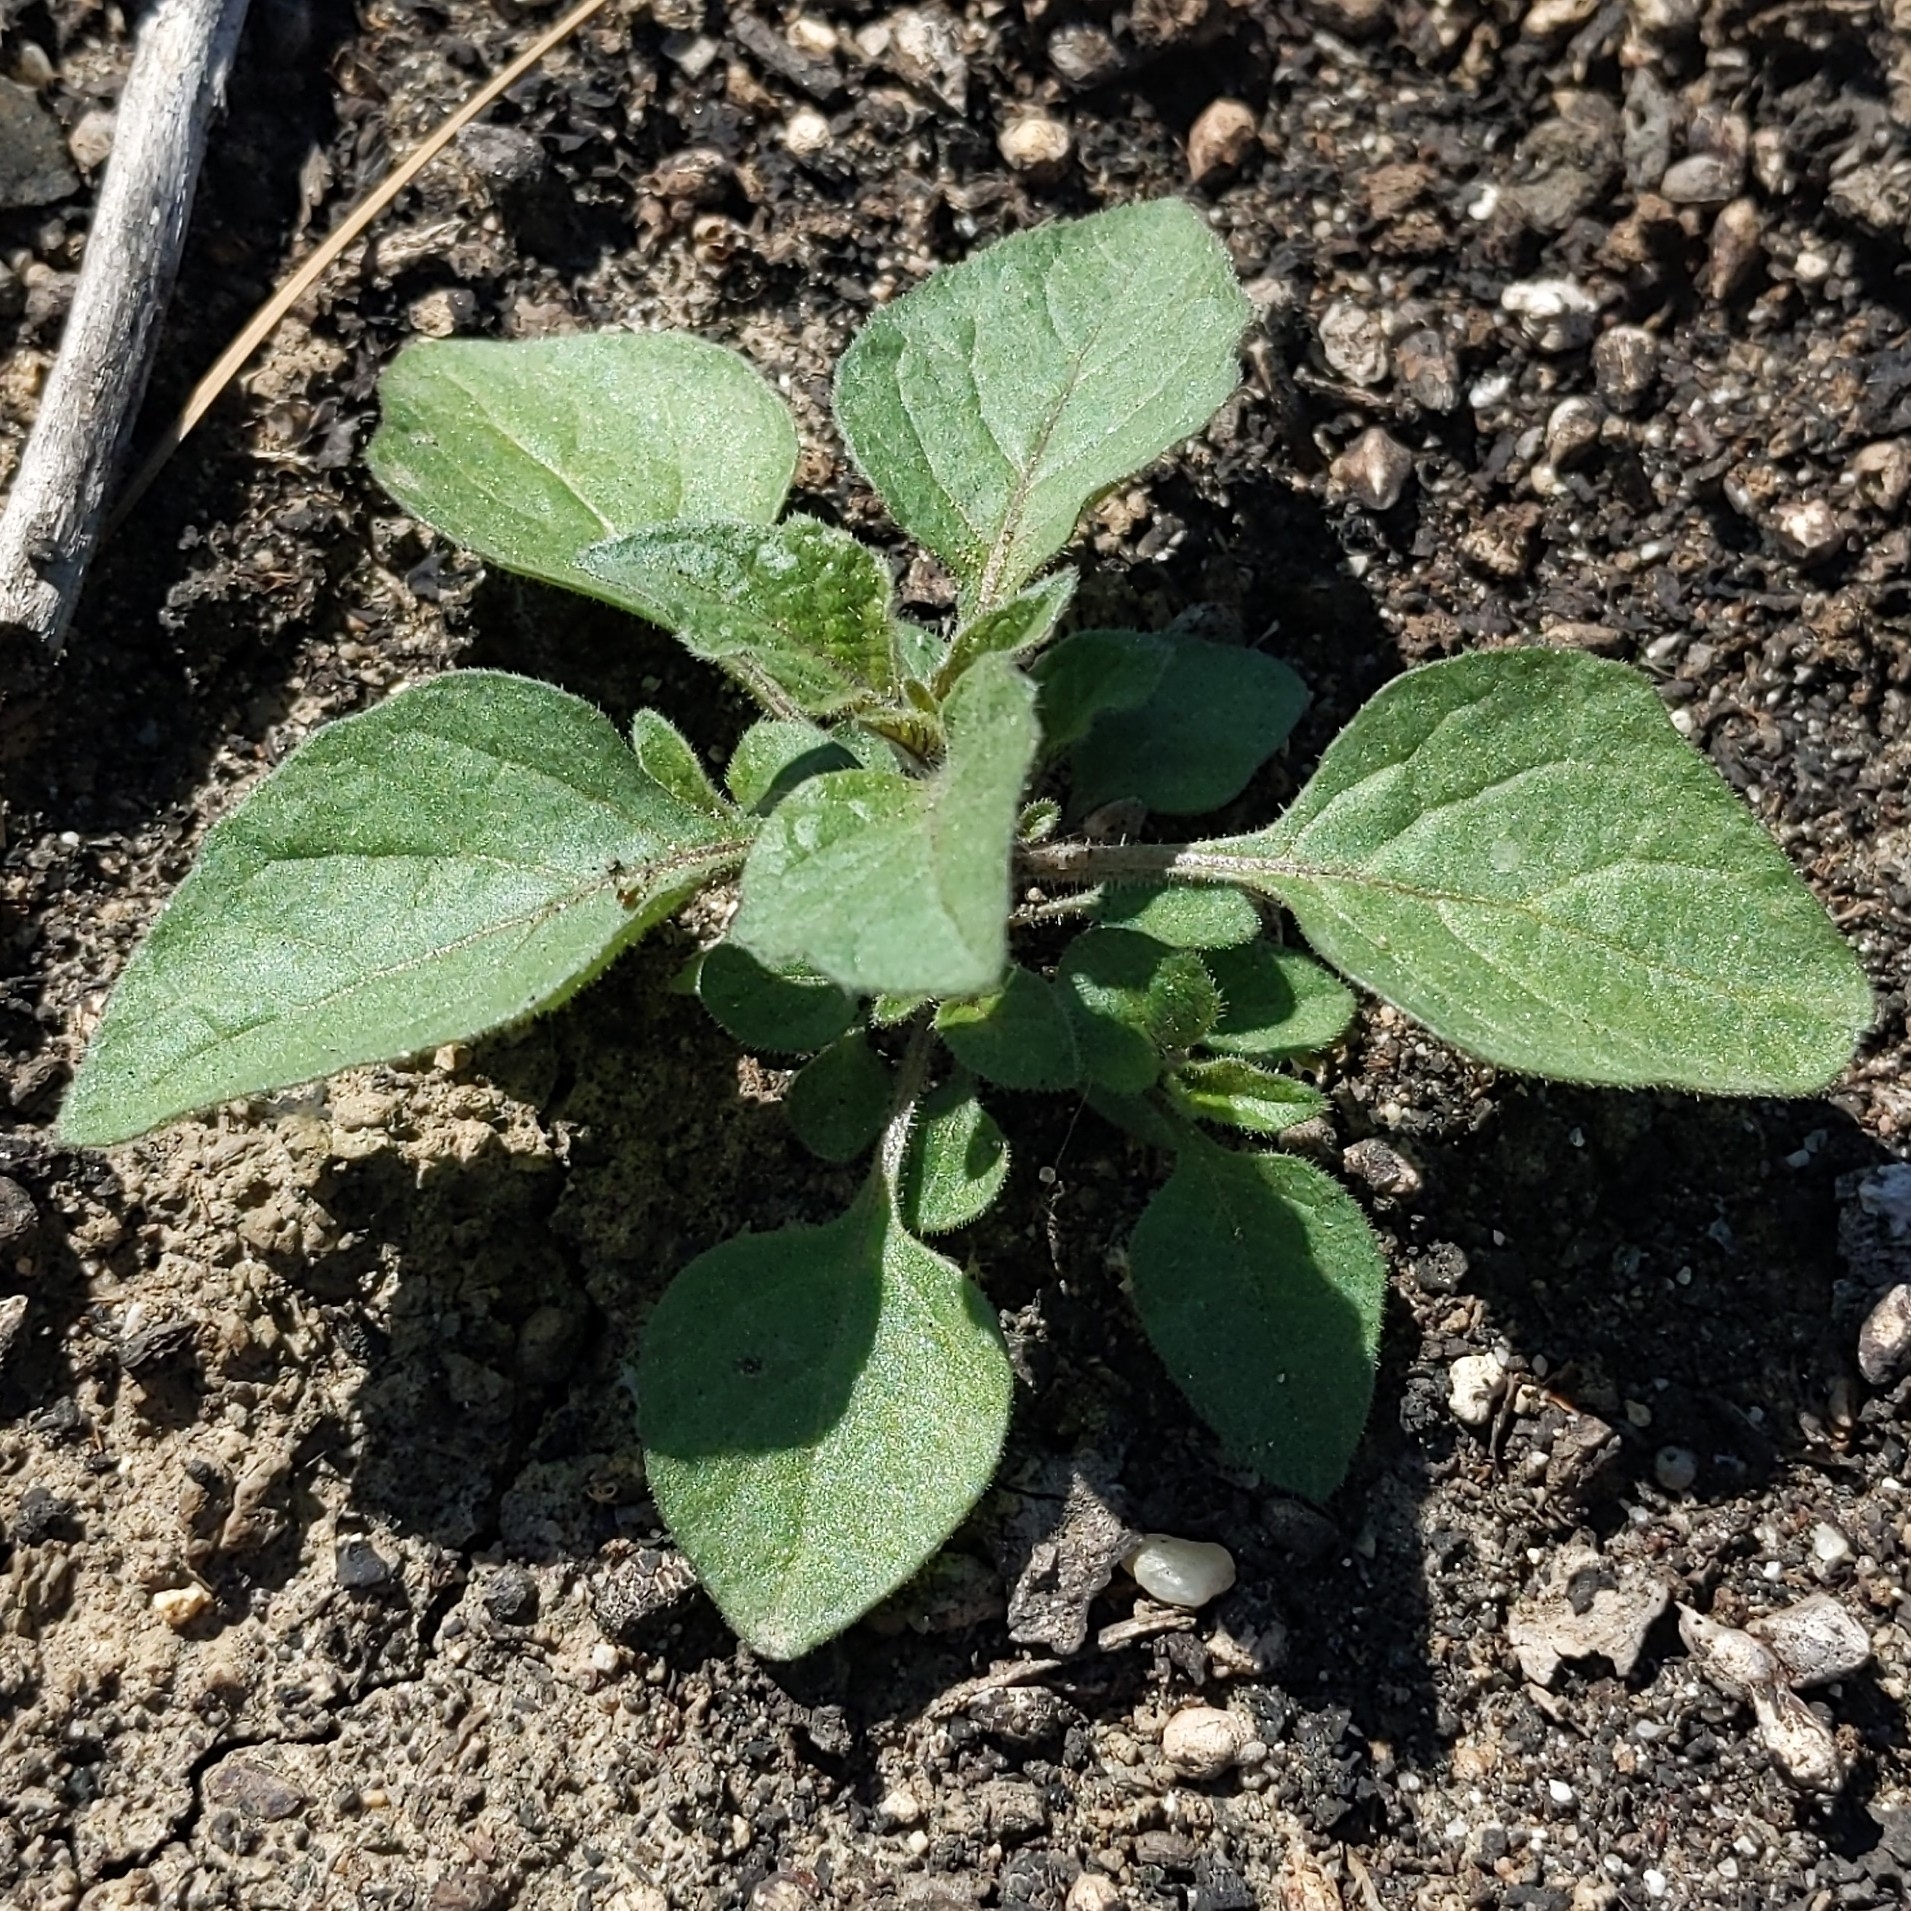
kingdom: Plantae
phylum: Tracheophyta
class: Magnoliopsida
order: Solanales
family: Solanaceae
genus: Solanum
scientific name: Solanum nigrum
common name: Black nightshade
